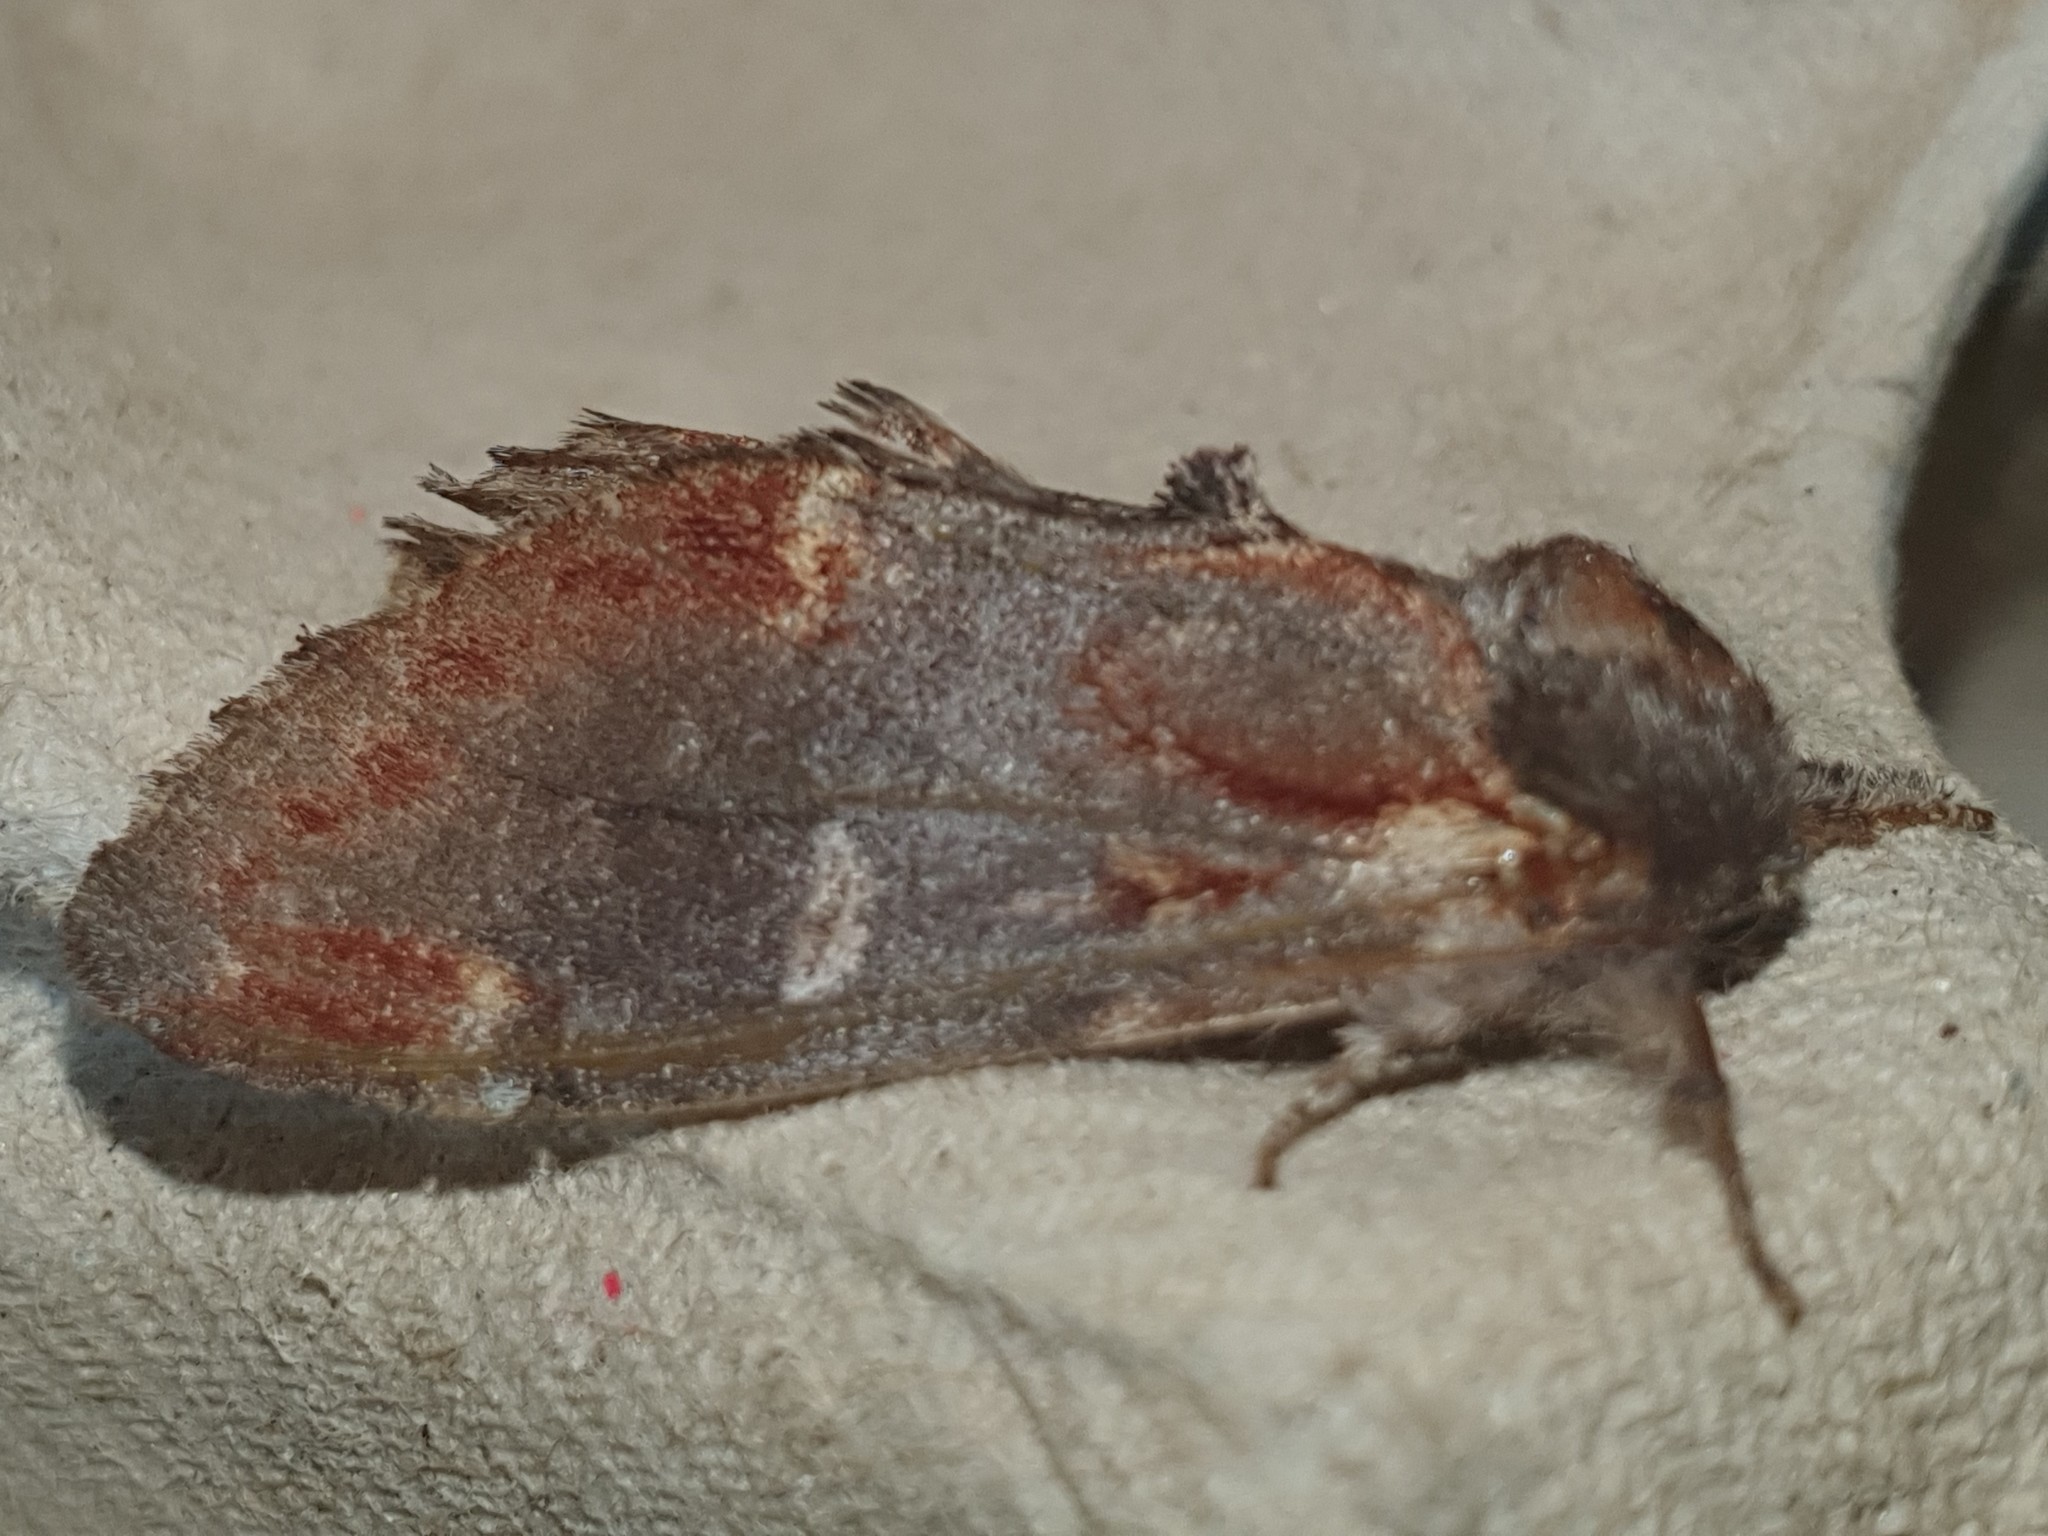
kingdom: Animalia
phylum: Arthropoda
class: Insecta
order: Lepidoptera
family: Notodontidae
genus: Notodonta
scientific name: Notodonta dromedarius
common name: Iron prominent
